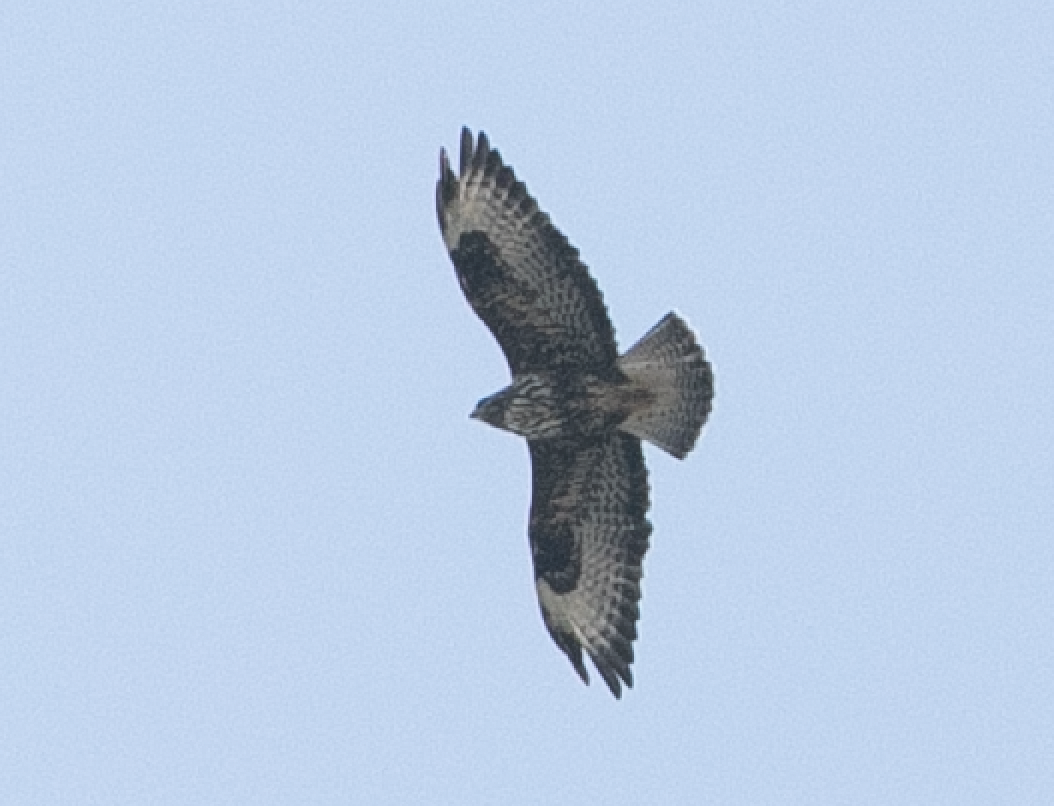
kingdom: Animalia
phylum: Chordata
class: Aves
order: Accipitriformes
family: Accipitridae
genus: Buteo
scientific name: Buteo buteo
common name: Common buzzard
